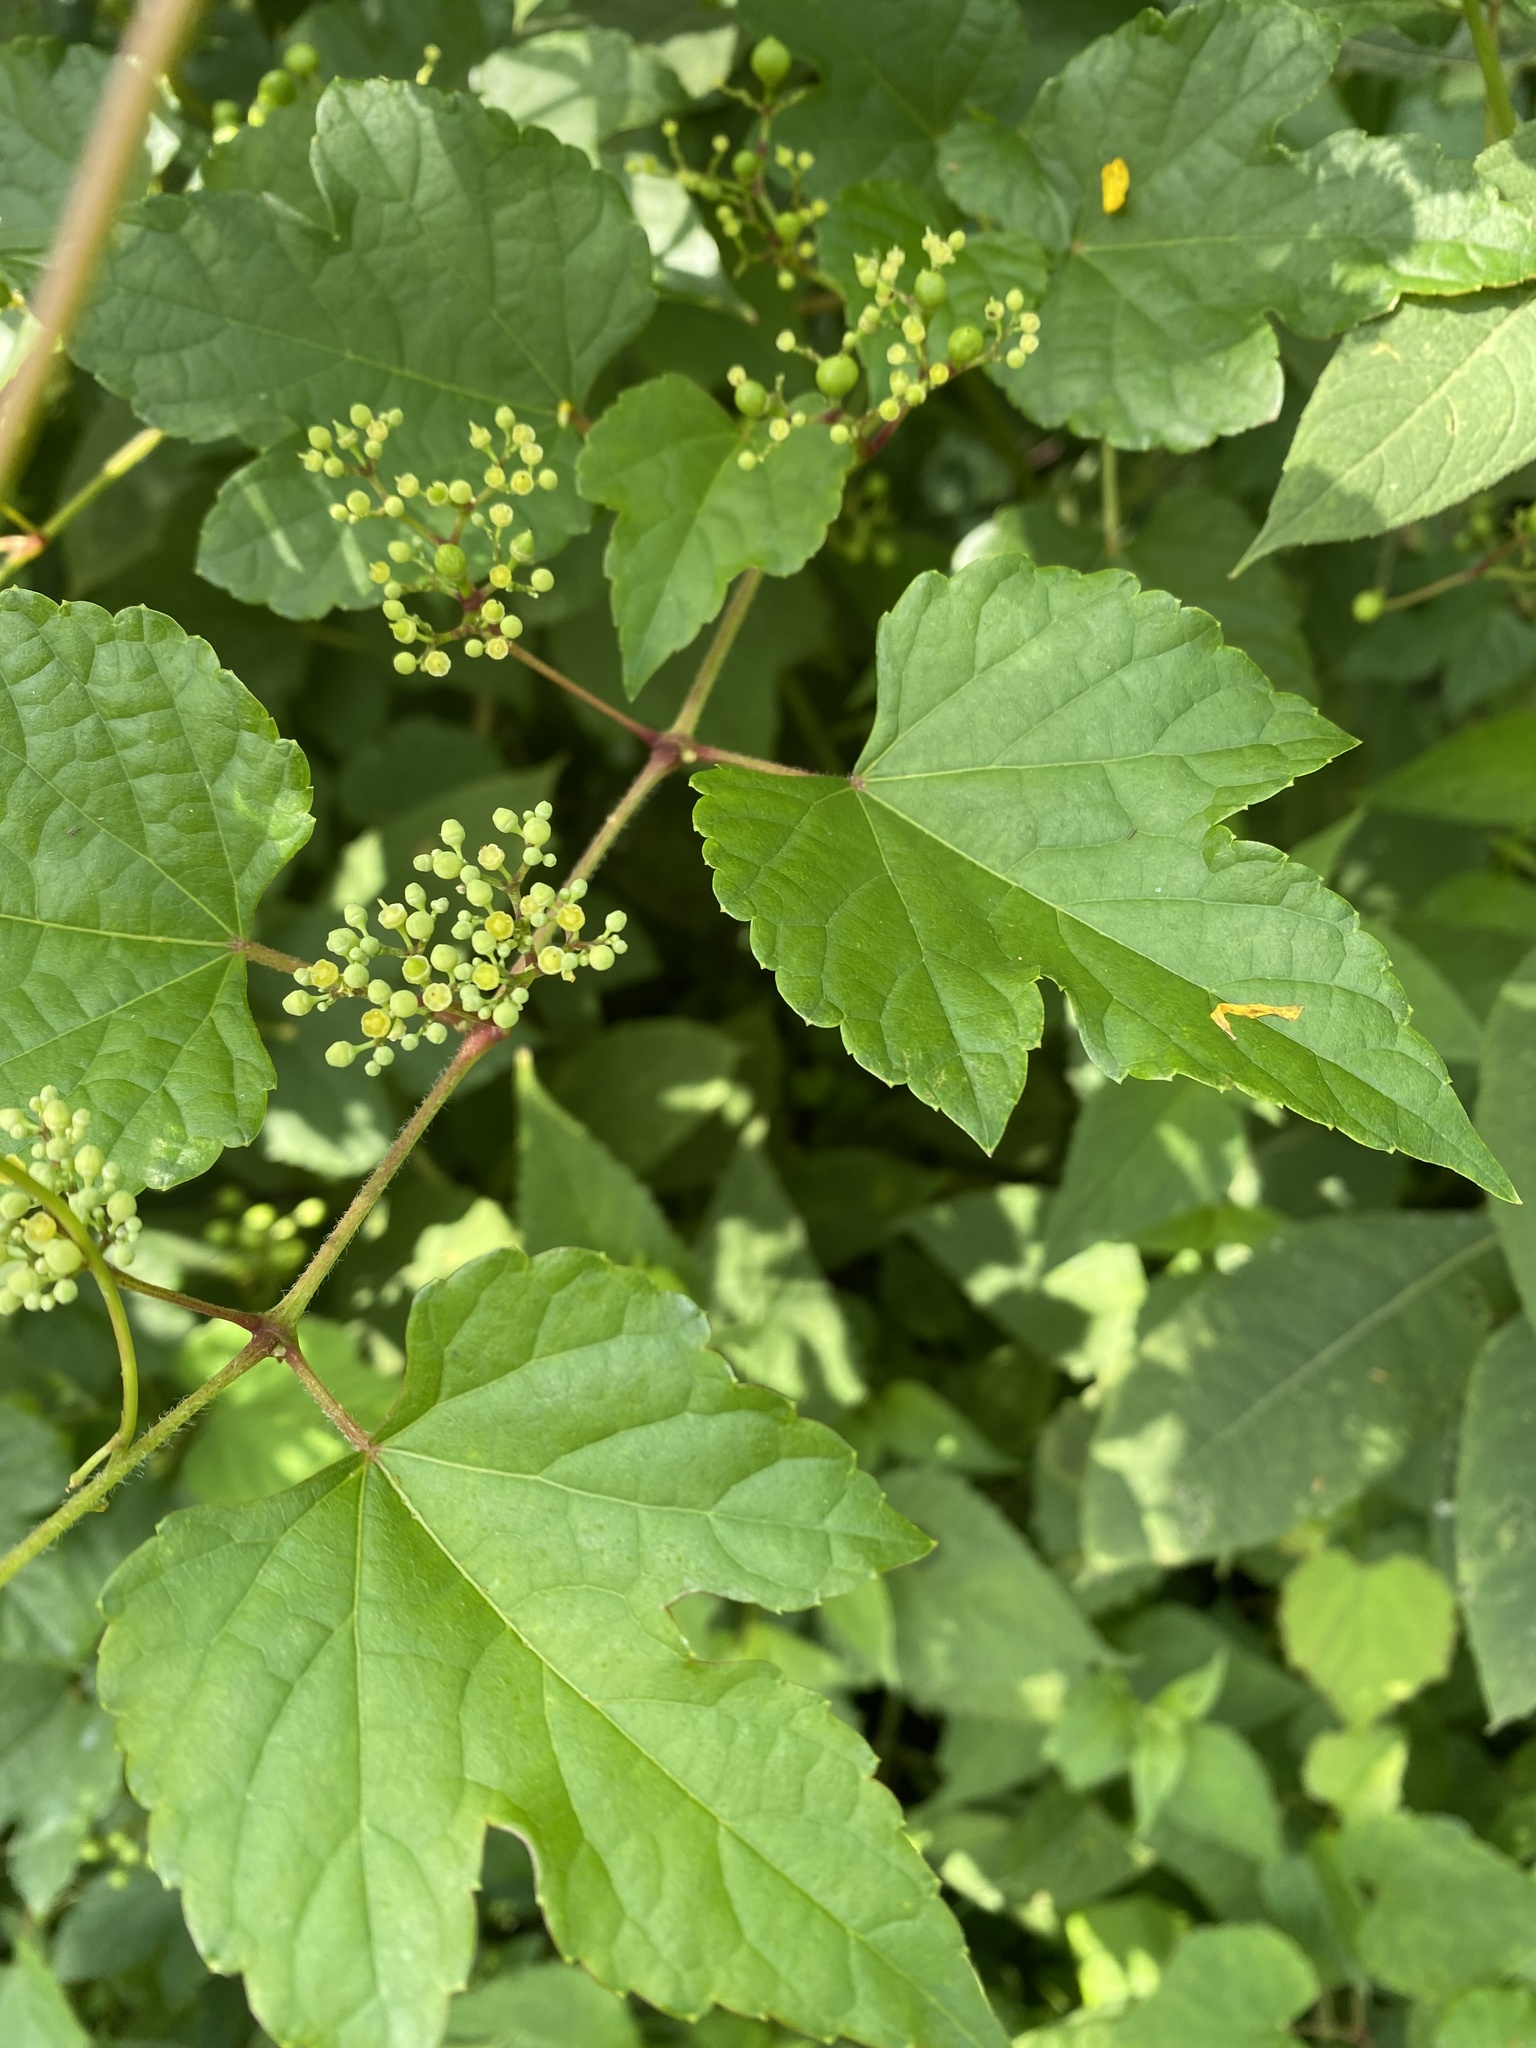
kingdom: Plantae
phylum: Tracheophyta
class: Magnoliopsida
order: Vitales
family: Vitaceae
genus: Ampelopsis
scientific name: Ampelopsis glandulosa
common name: Amur peppervine
